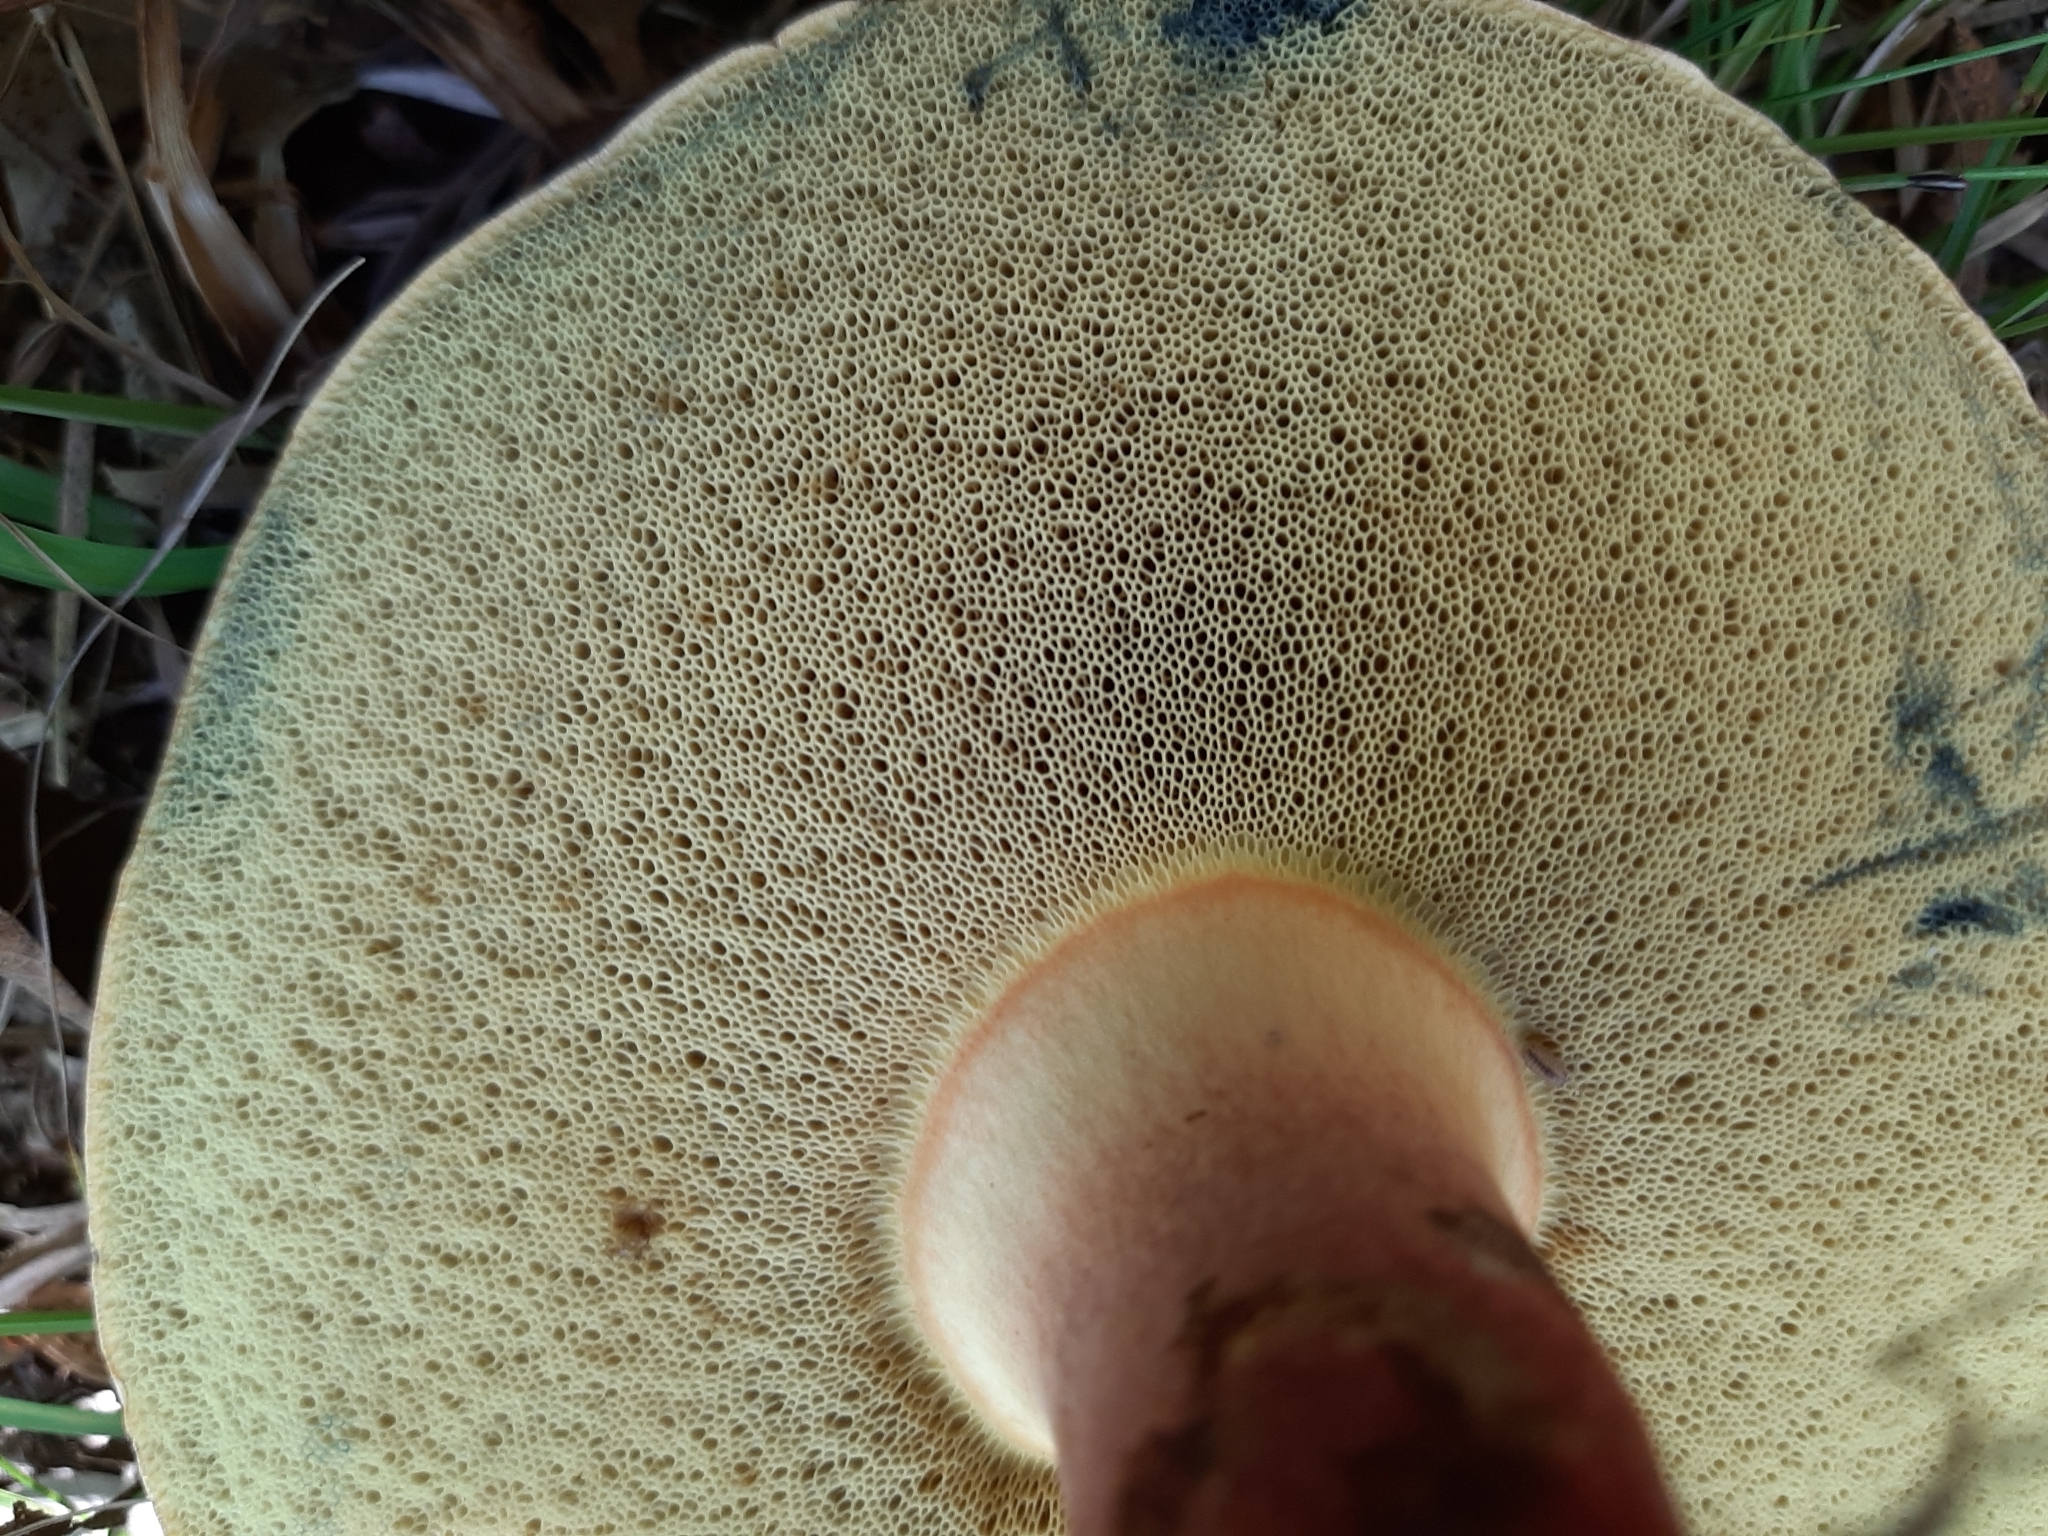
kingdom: Fungi
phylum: Basidiomycota
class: Agaricomycetes
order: Boletales
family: Boletaceae
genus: Lanmaoa
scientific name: Lanmaoa pseudosensibilis
